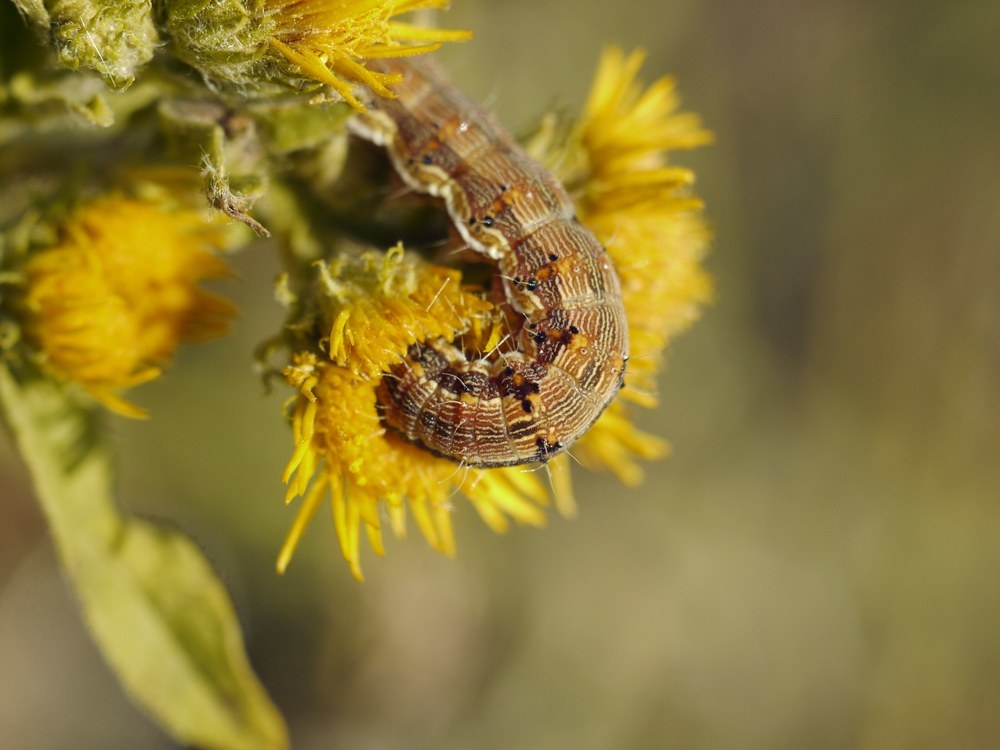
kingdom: Animalia
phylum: Arthropoda
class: Insecta
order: Lepidoptera
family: Noctuidae
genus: Helicoverpa
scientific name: Helicoverpa armigera
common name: Cotton bollworm
